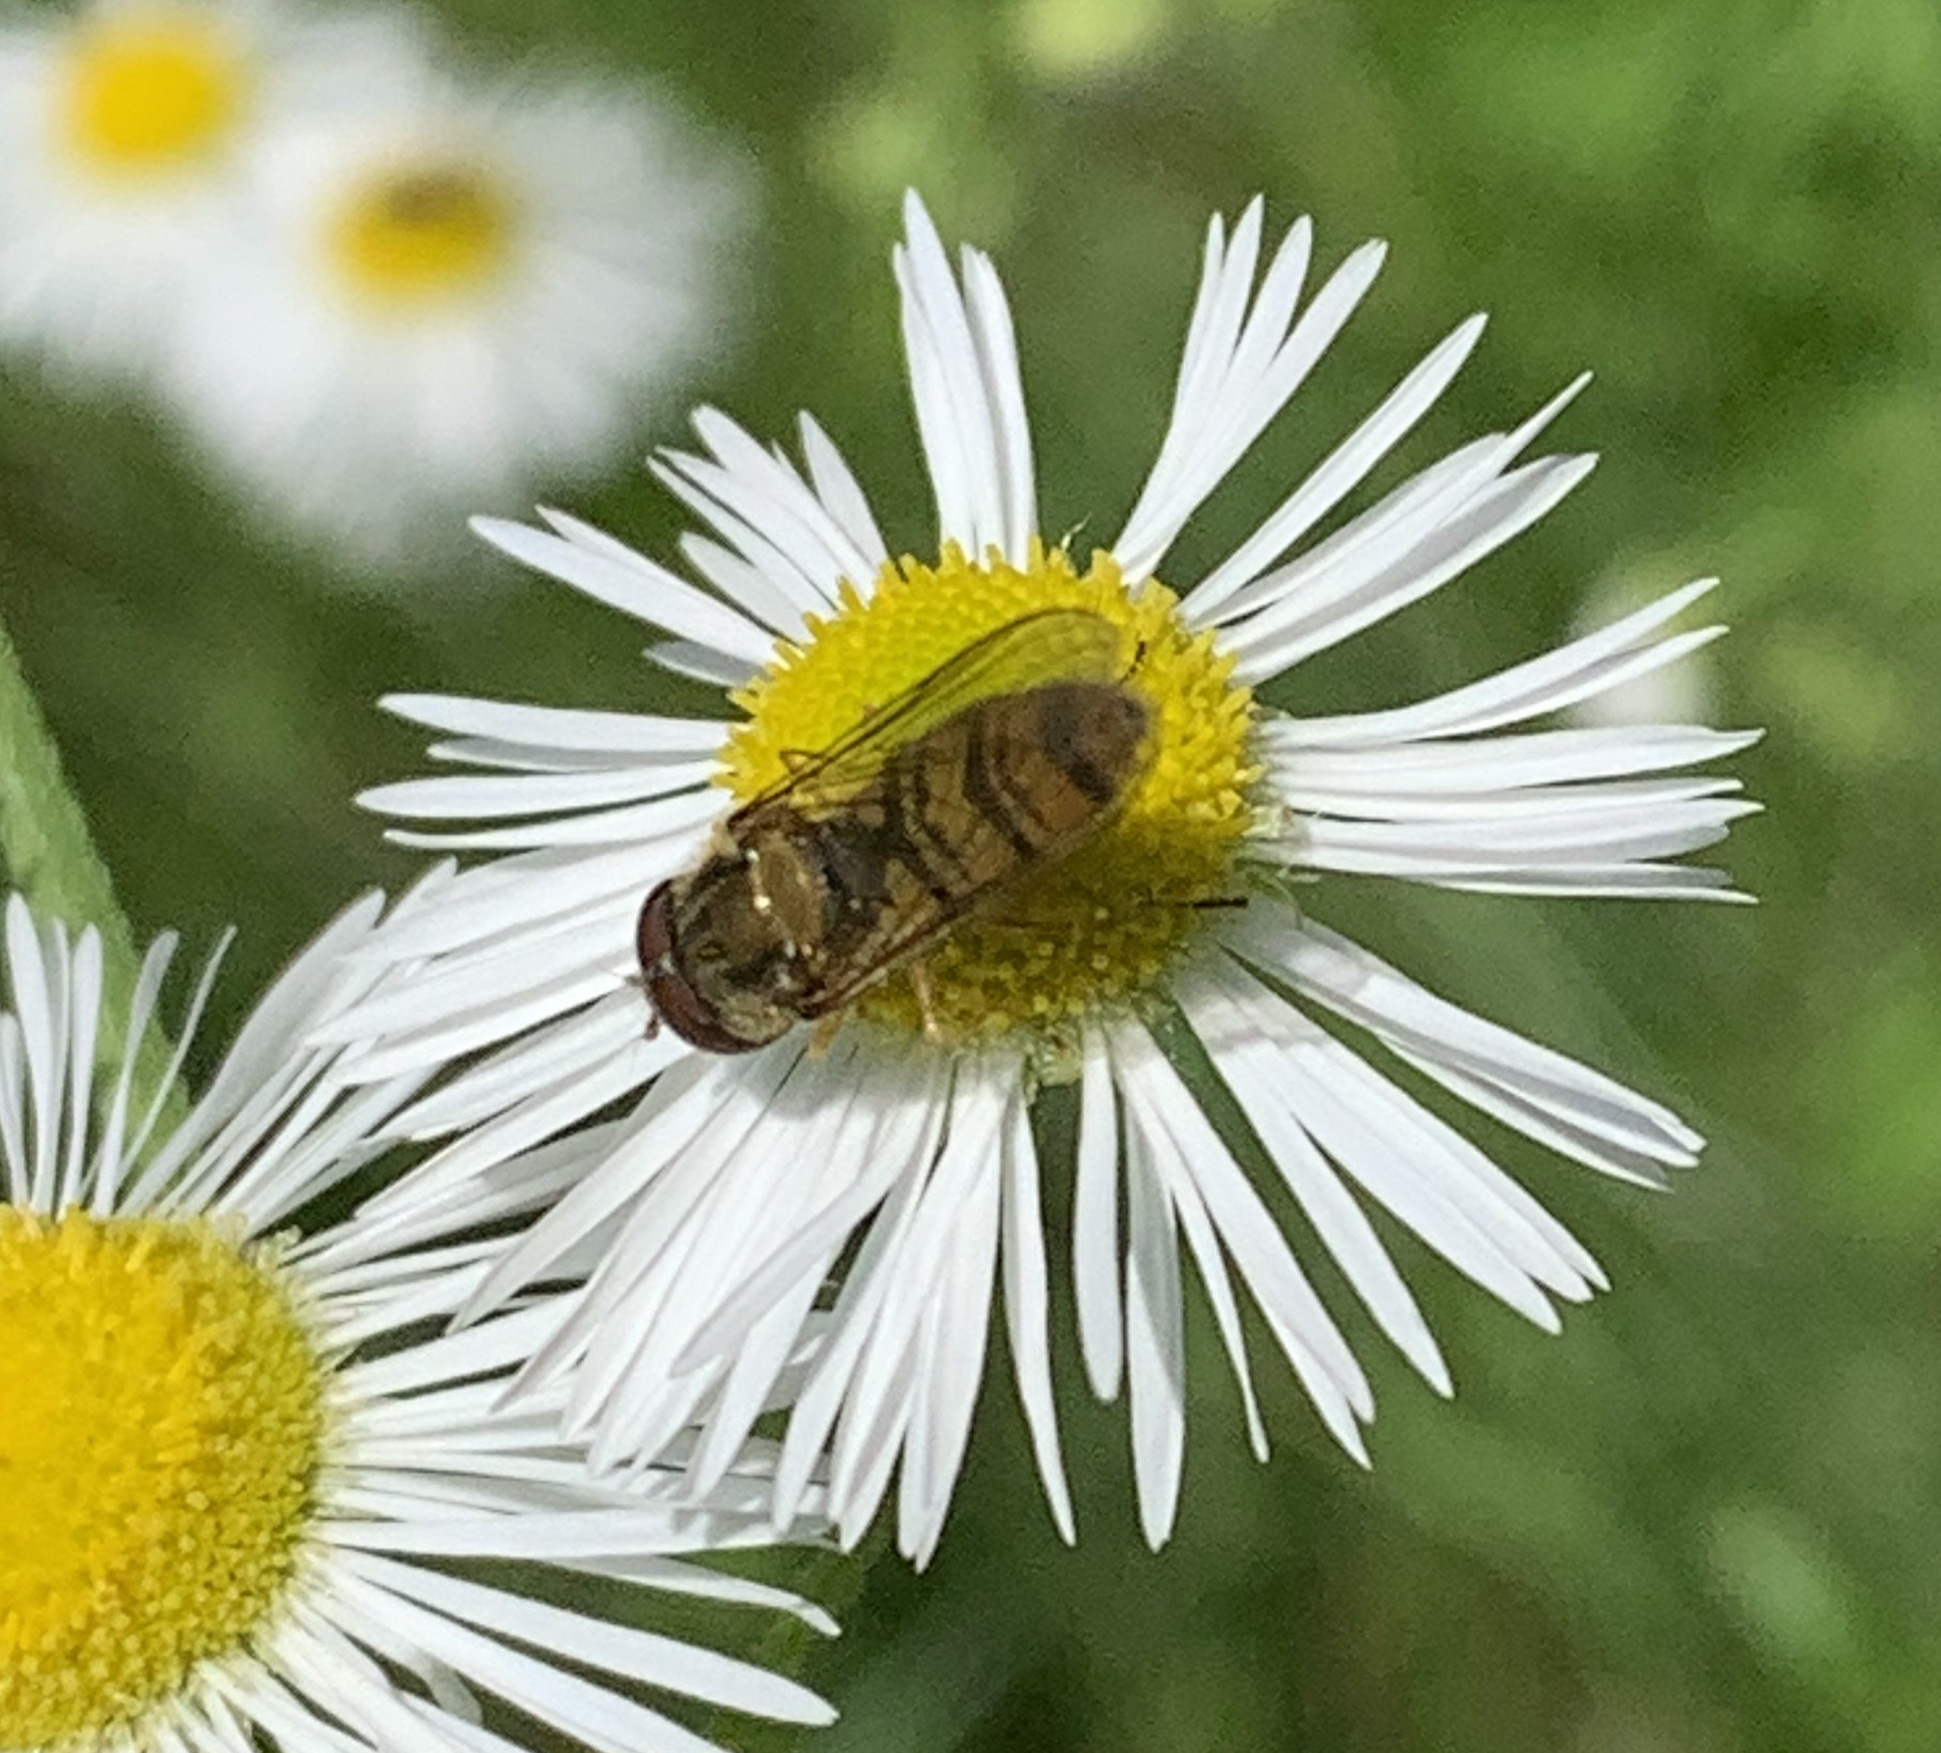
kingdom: Animalia
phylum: Arthropoda
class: Insecta
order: Diptera
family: Syrphidae
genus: Episyrphus
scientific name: Episyrphus balteatus
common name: Marmalade hoverfly
